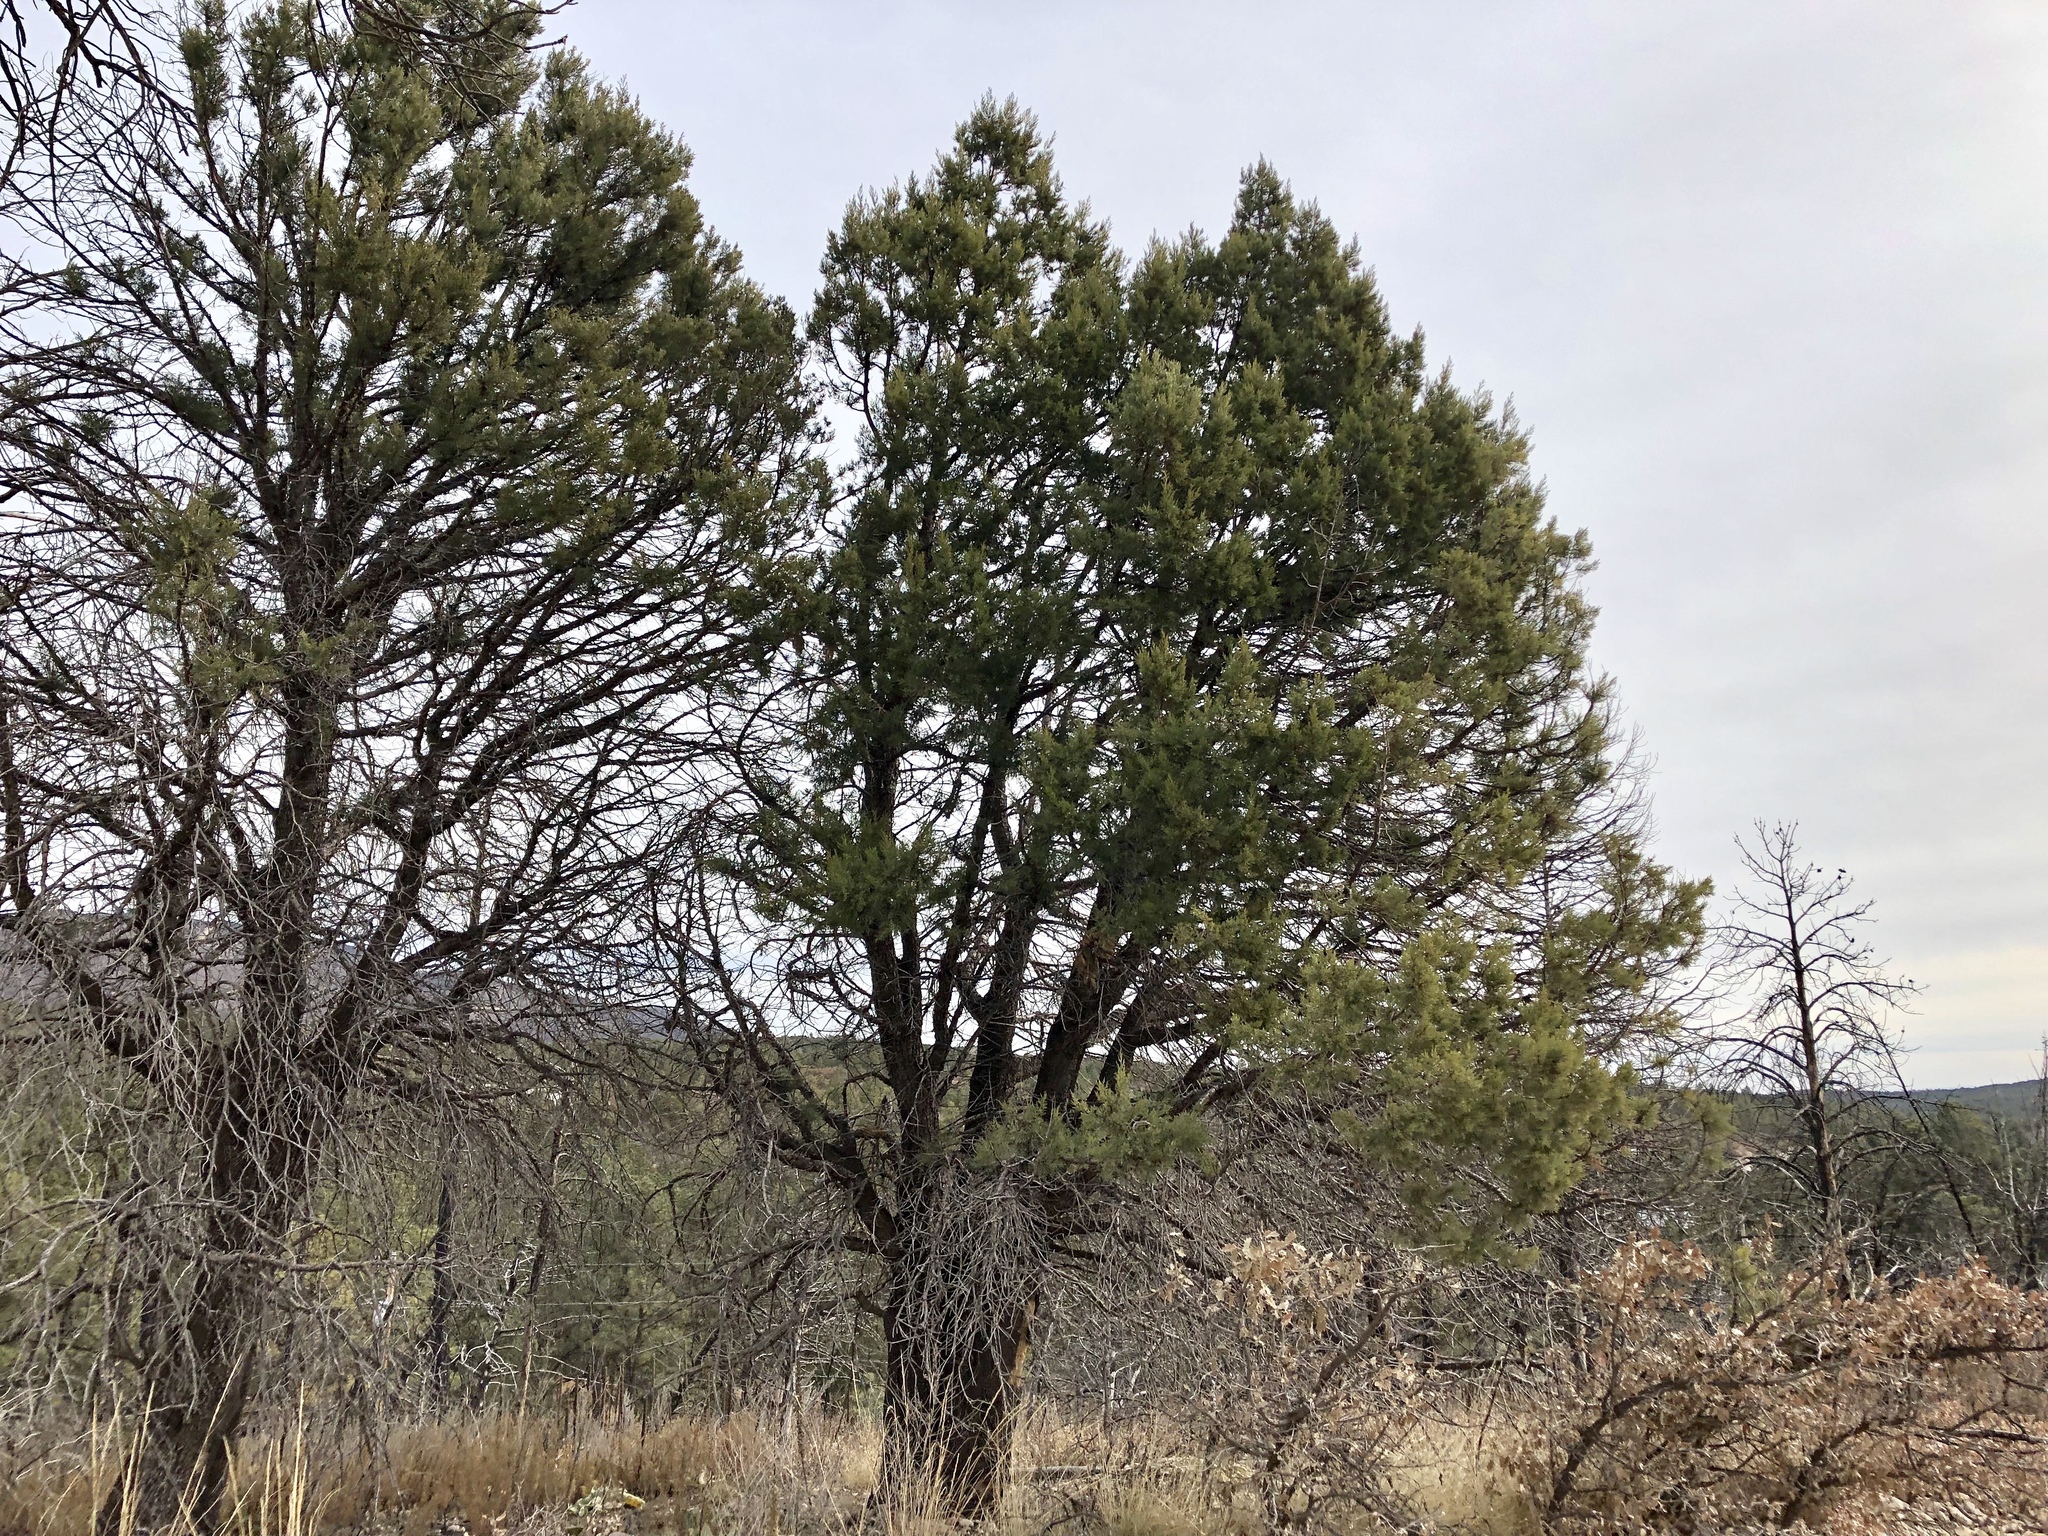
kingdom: Plantae
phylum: Tracheophyta
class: Pinopsida
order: Pinales
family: Cupressaceae
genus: Juniperus
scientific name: Juniperus deppeana
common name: Alligator juniper
